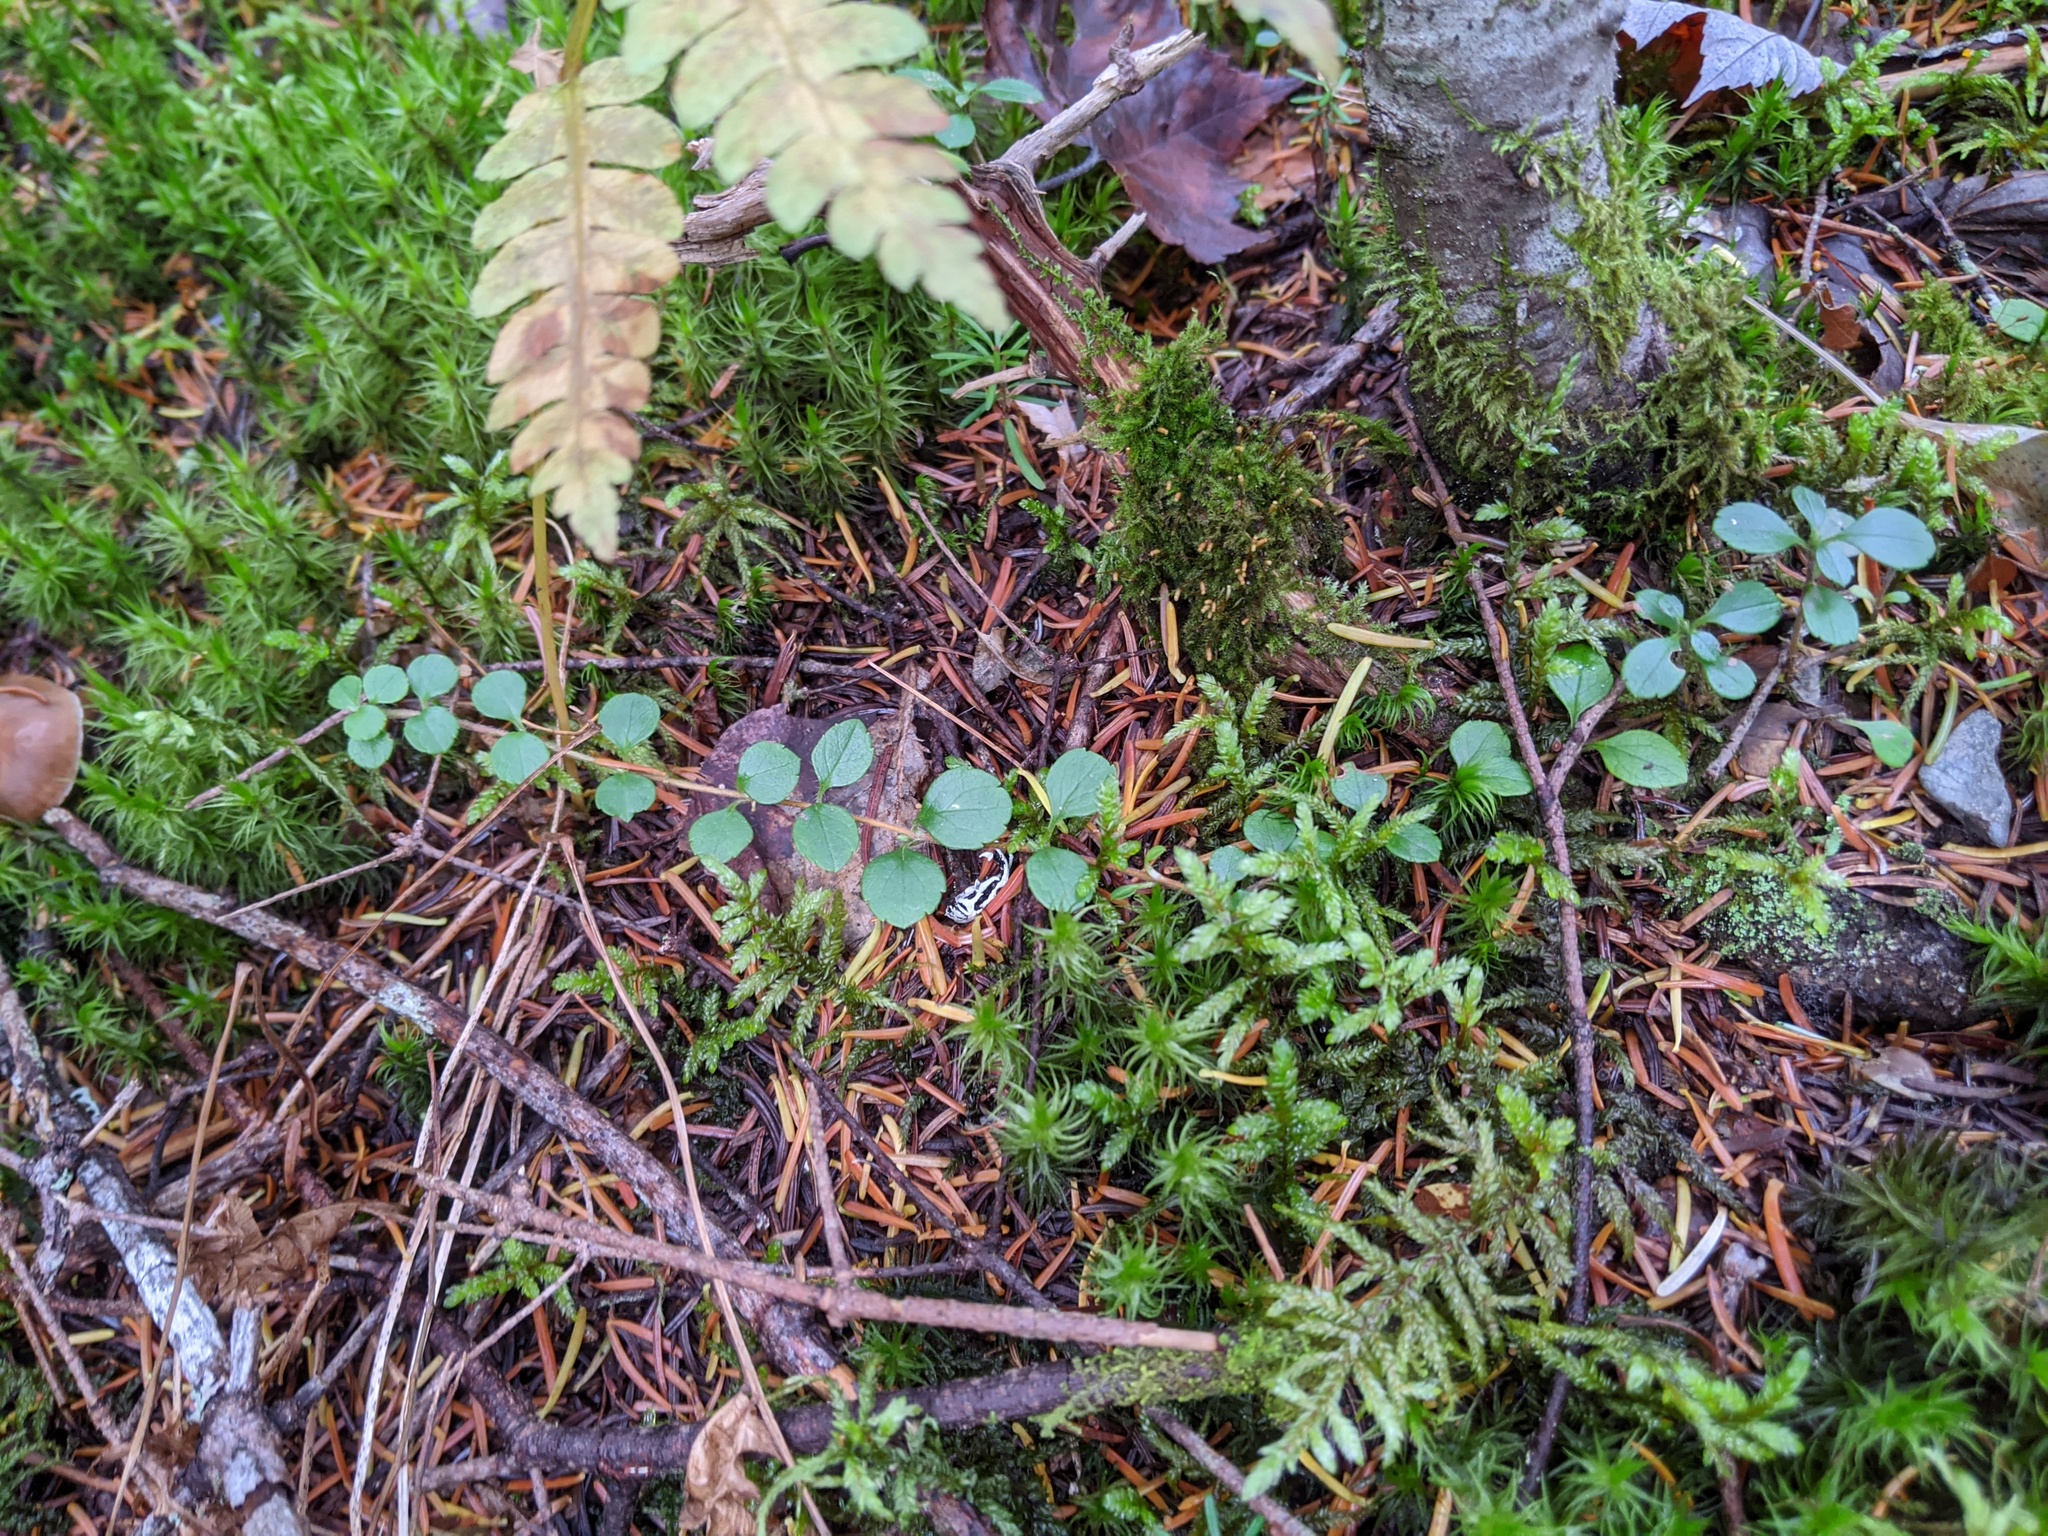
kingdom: Plantae
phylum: Tracheophyta
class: Magnoliopsida
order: Dipsacales
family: Caprifoliaceae
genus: Linnaea
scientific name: Linnaea borealis
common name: Twinflower
